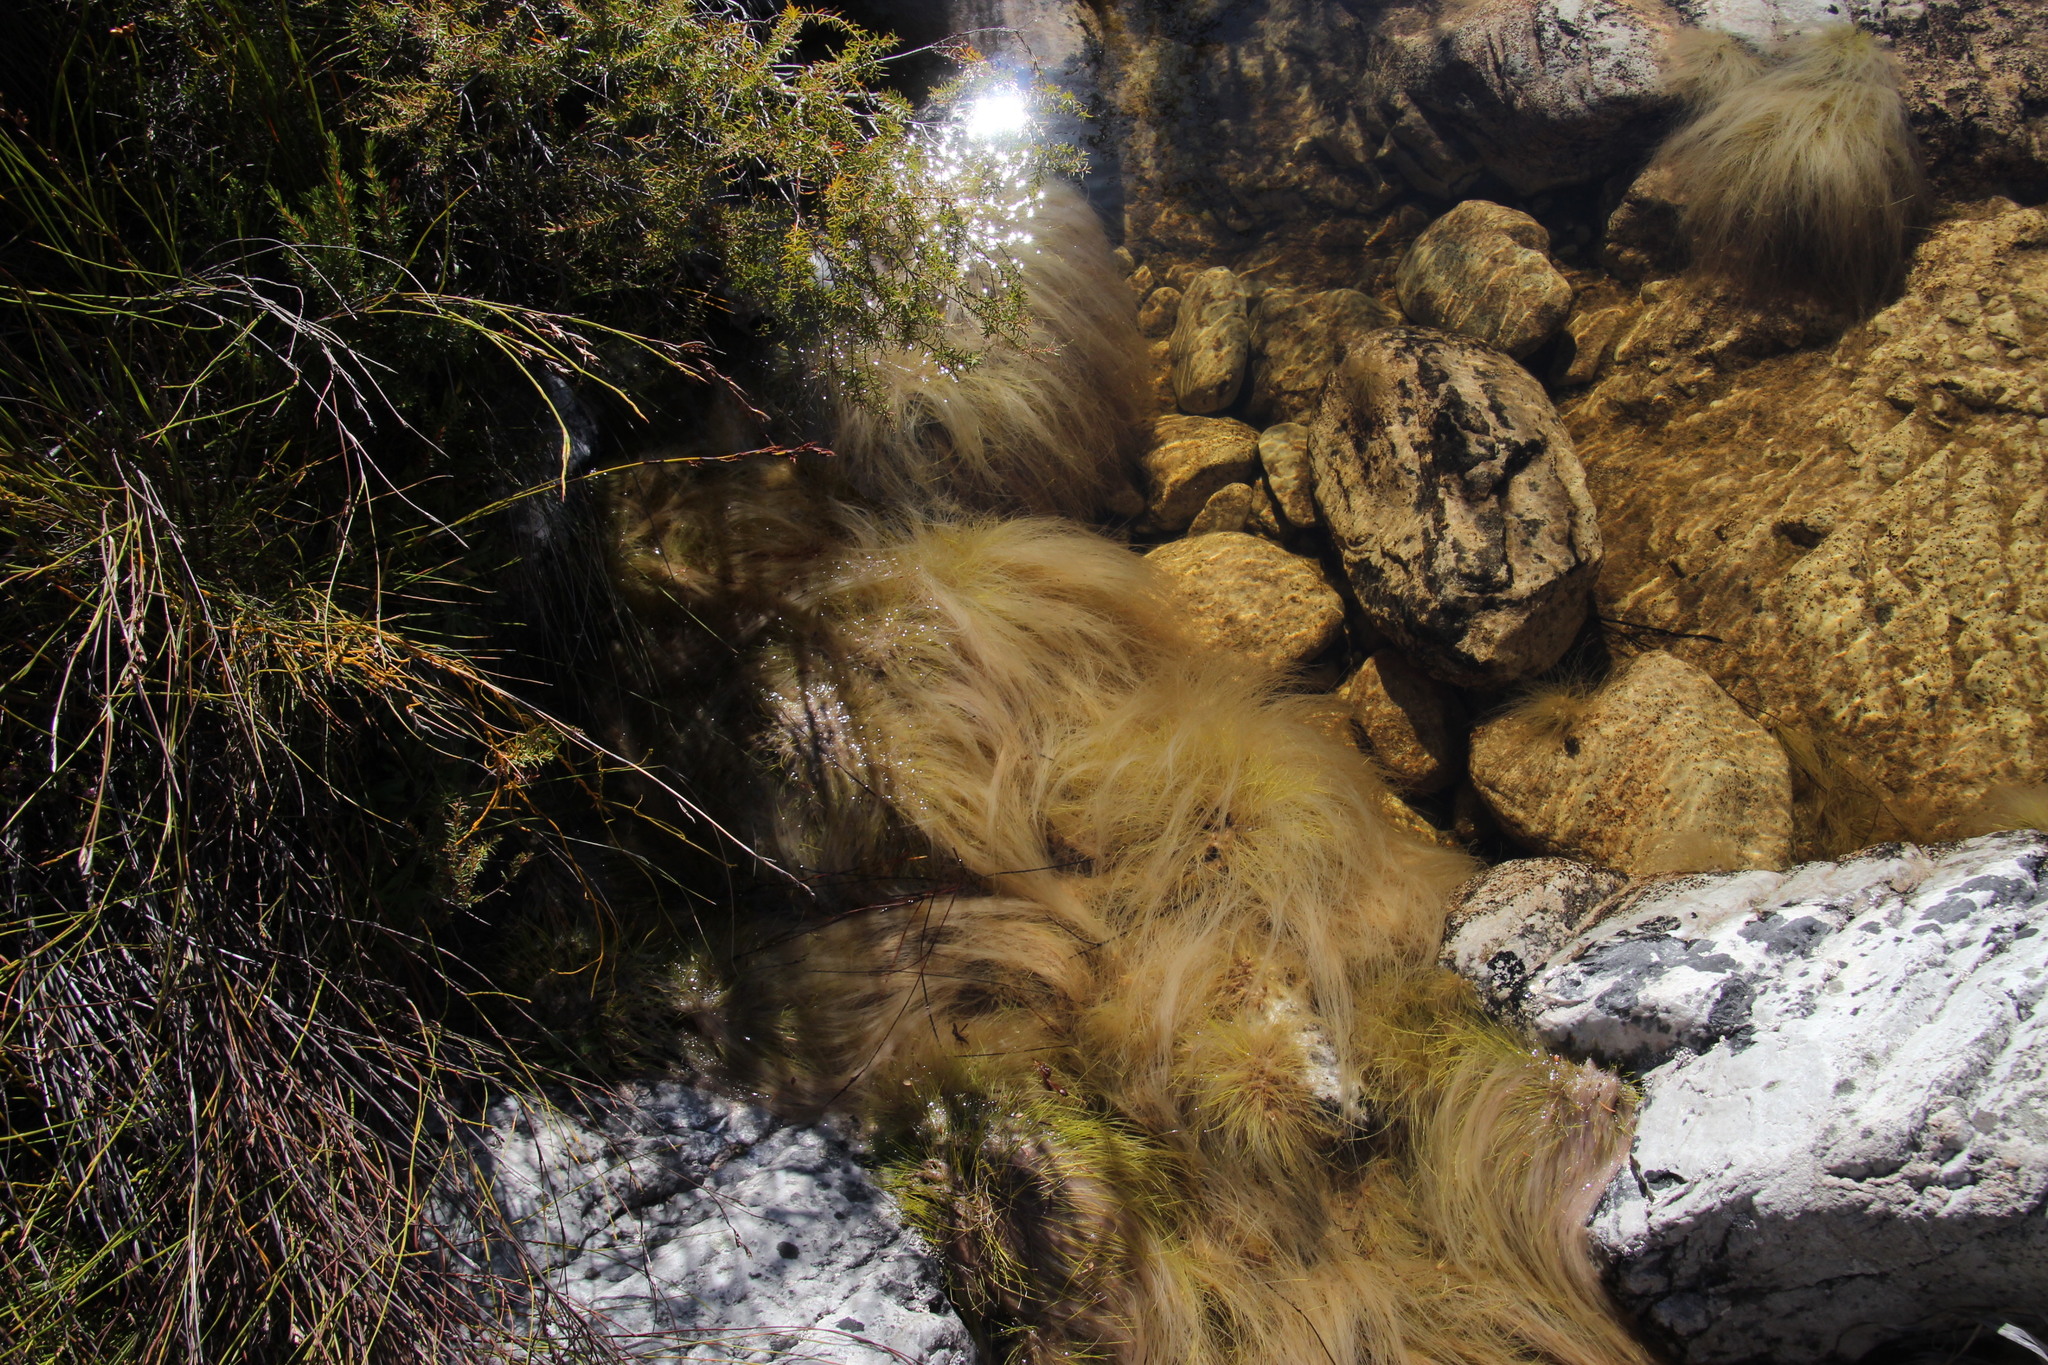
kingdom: Plantae
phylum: Tracheophyta
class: Liliopsida
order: Poales
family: Cyperaceae
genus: Isolepis
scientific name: Isolepis digitata
